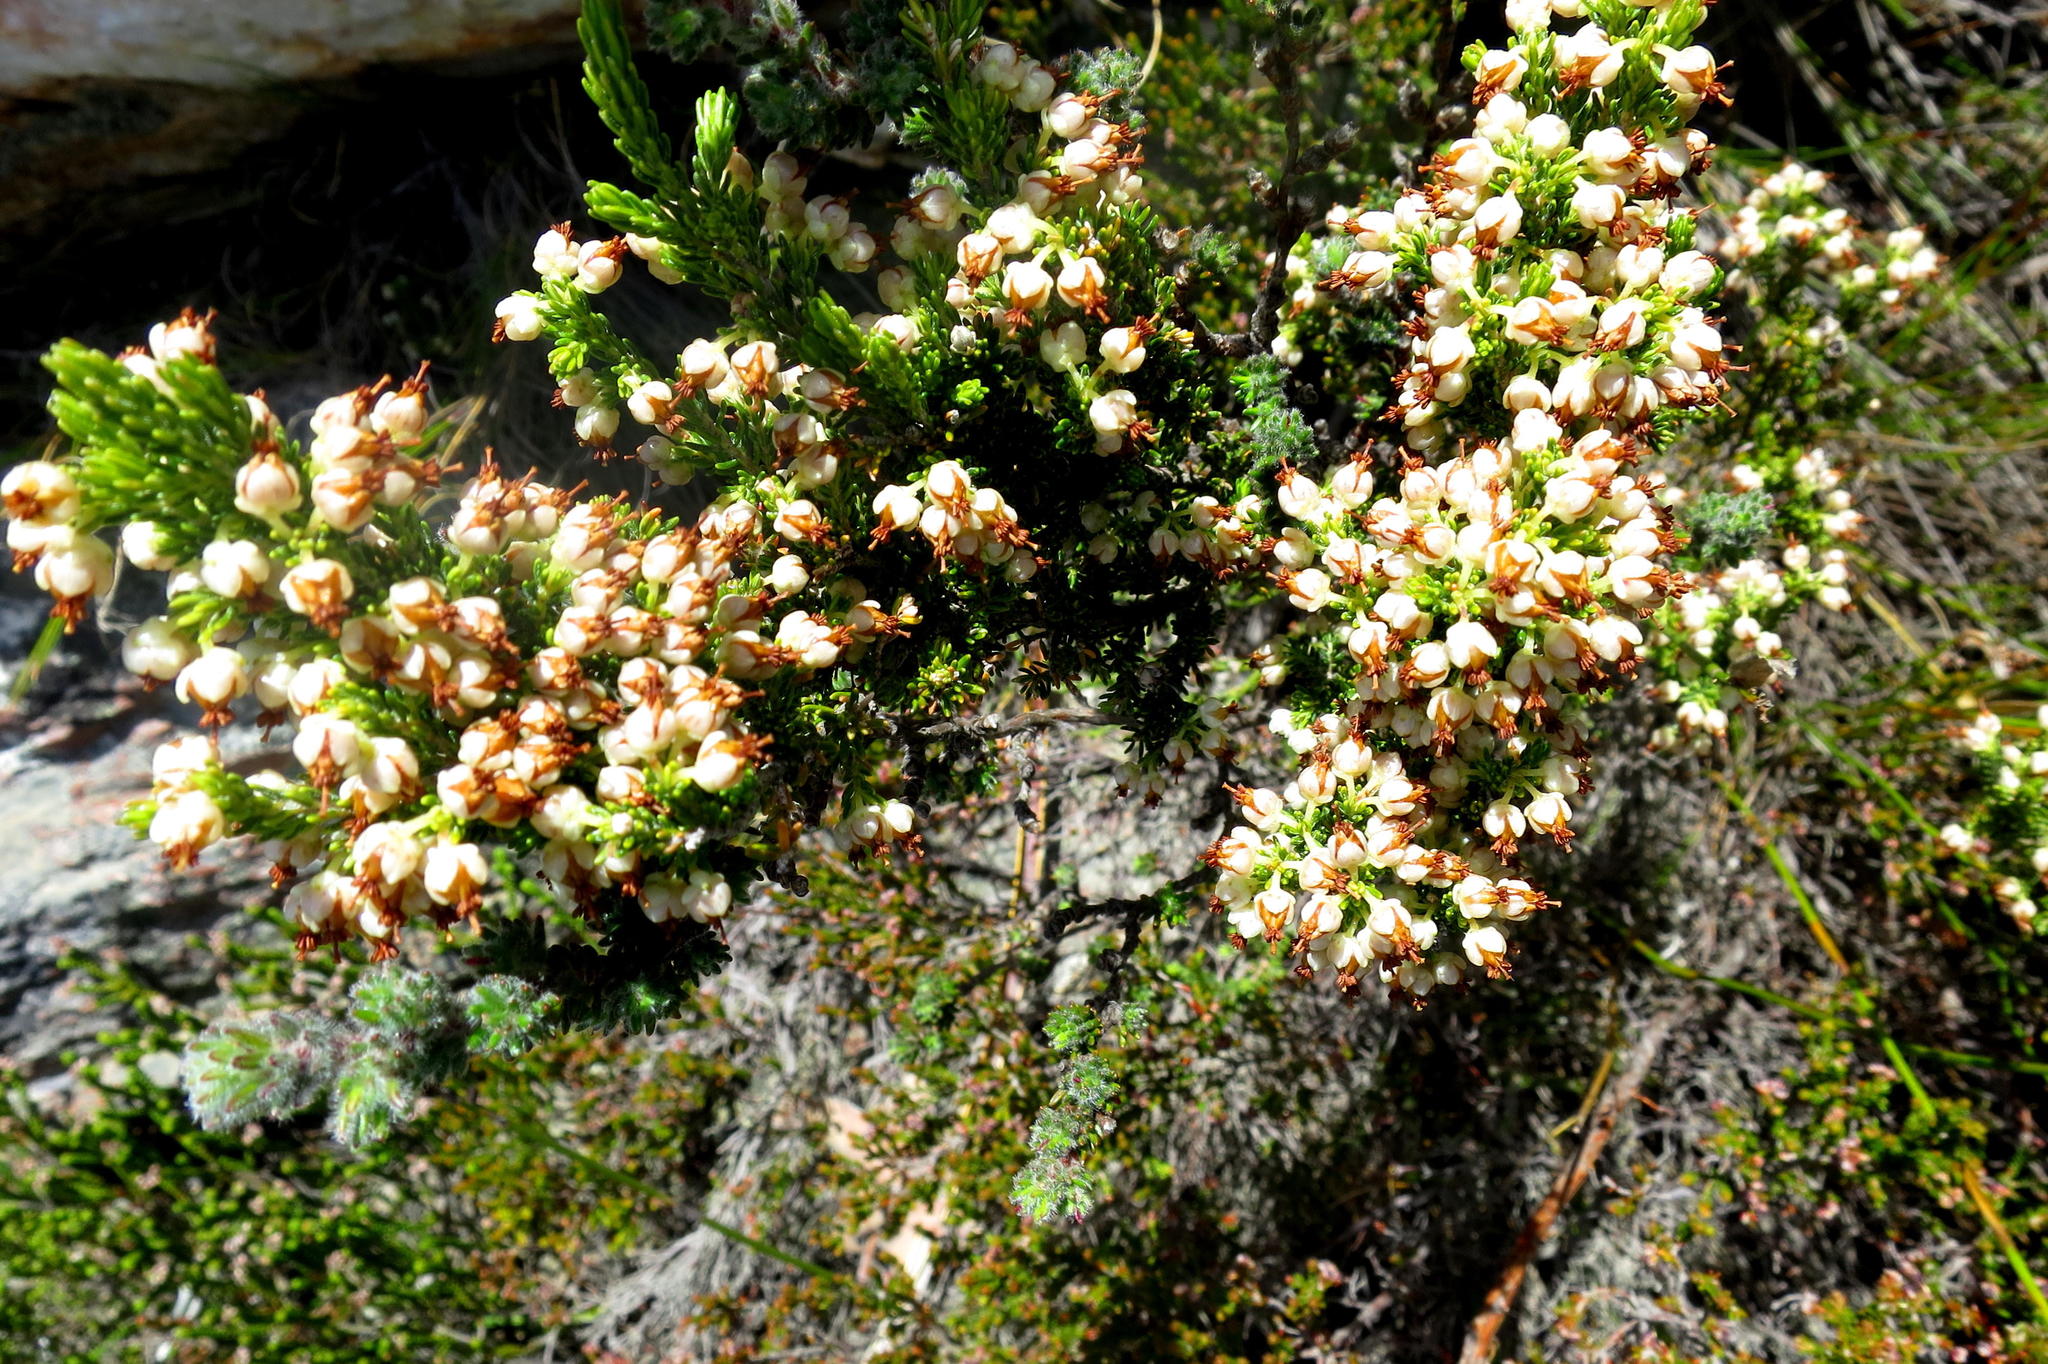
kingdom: Plantae
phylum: Tracheophyta
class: Magnoliopsida
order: Ericales
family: Ericaceae
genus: Erica
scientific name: Erica sonderiana
